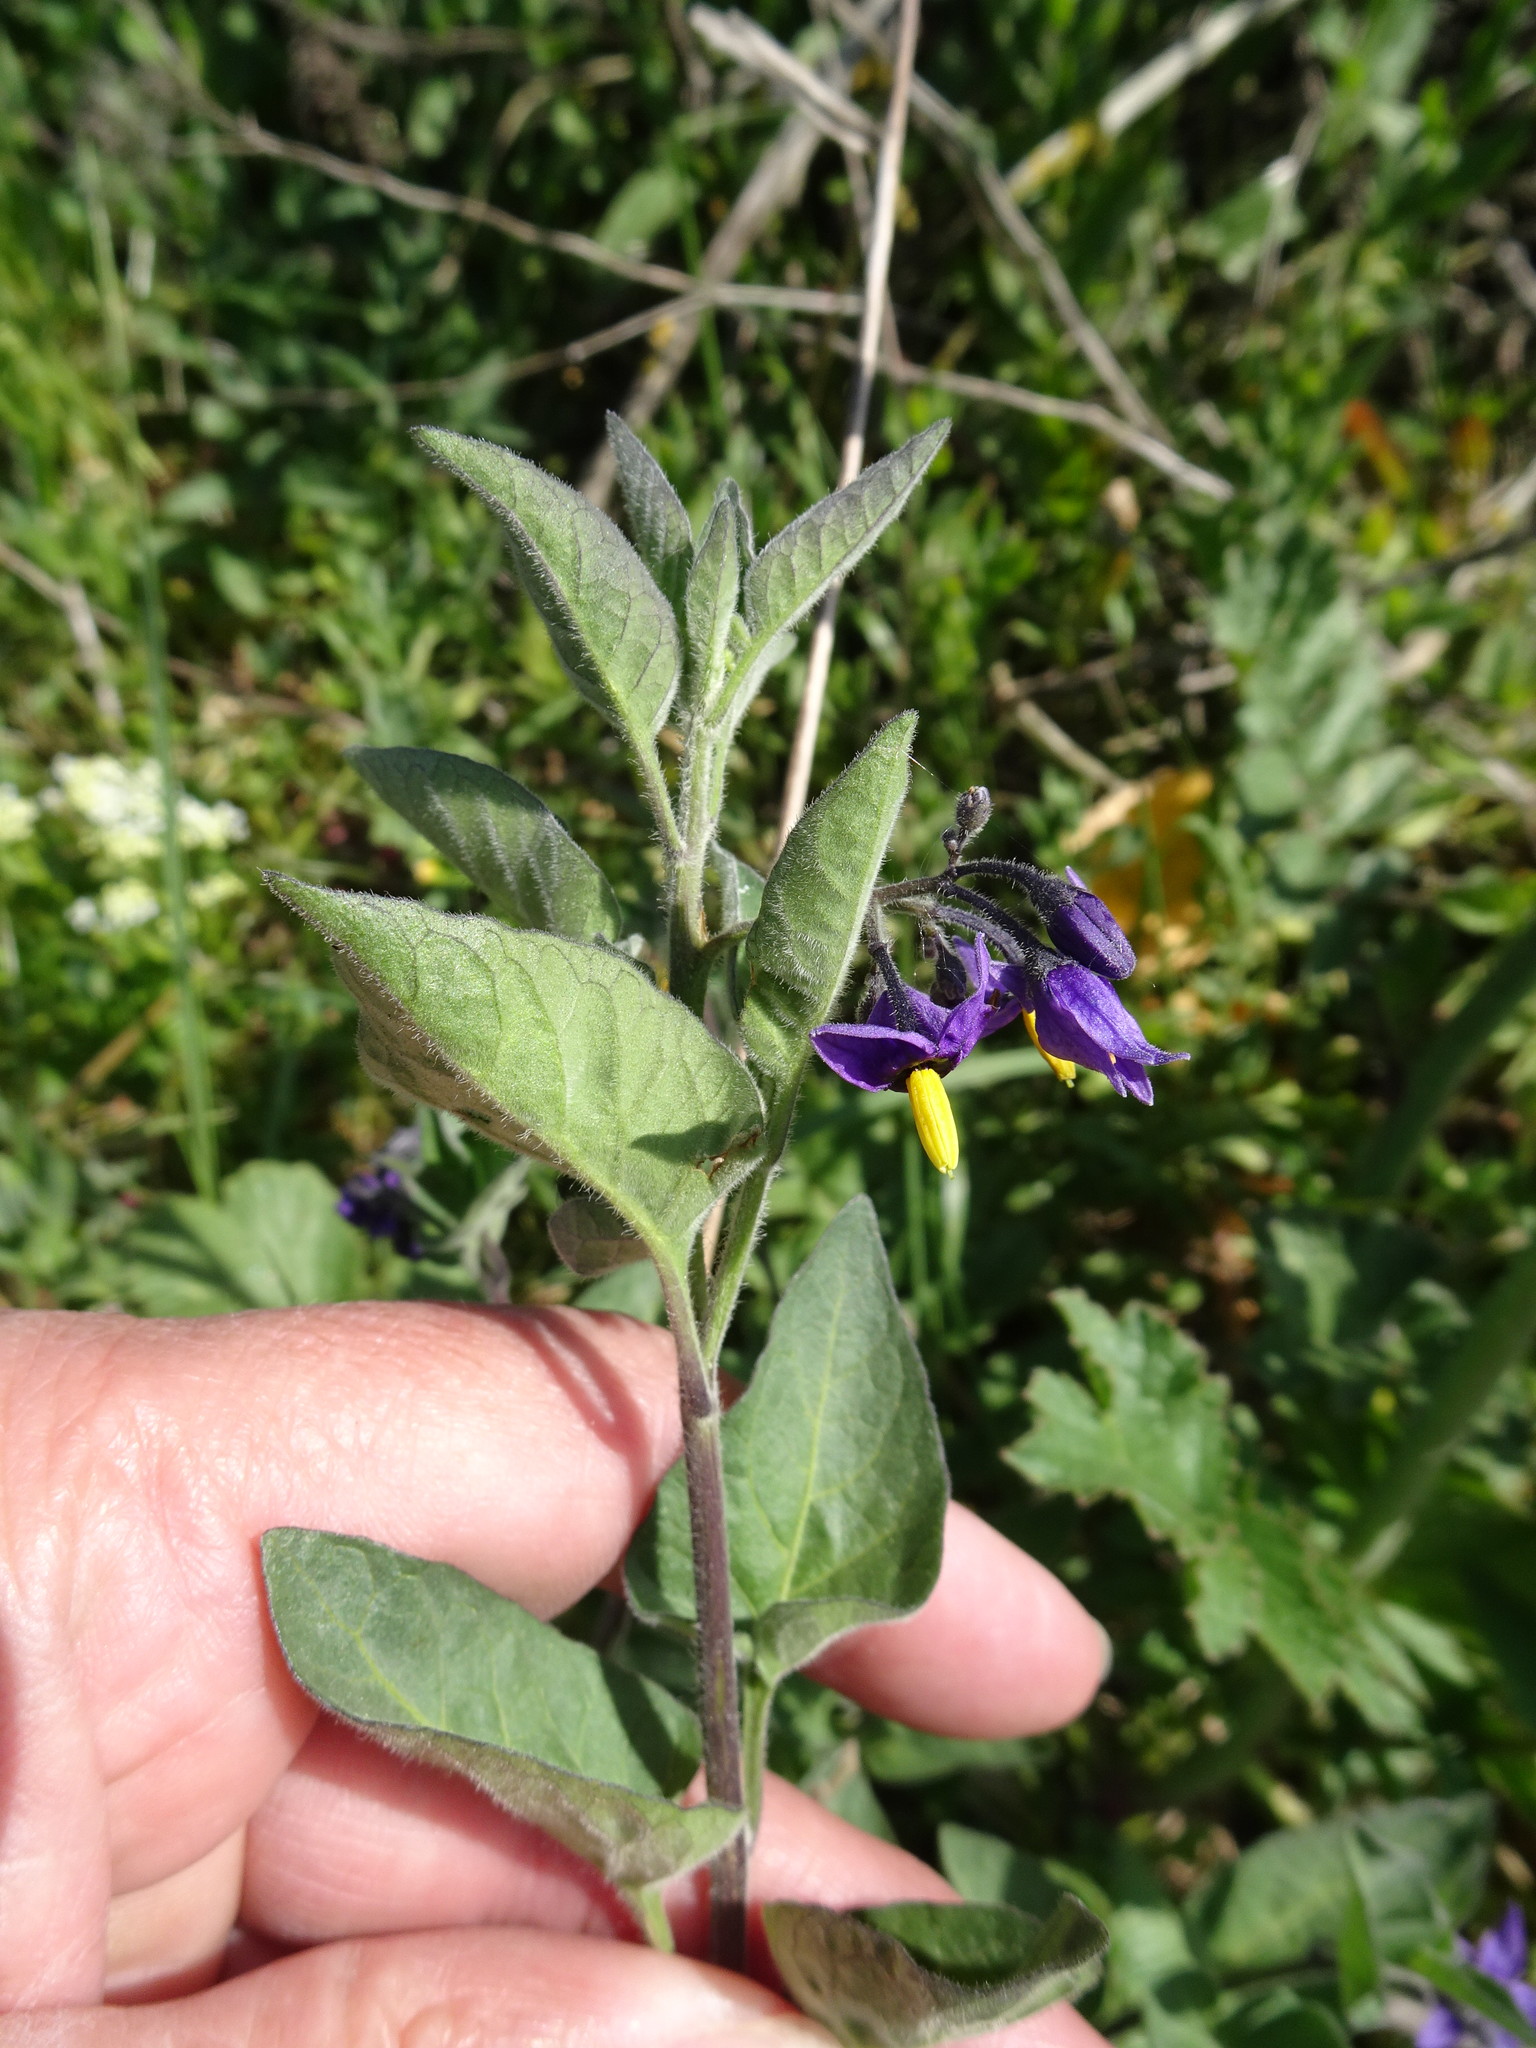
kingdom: Plantae
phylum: Tracheophyta
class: Magnoliopsida
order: Solanales
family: Solanaceae
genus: Solanum
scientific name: Solanum dulcamara
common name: Climbing nightshade
